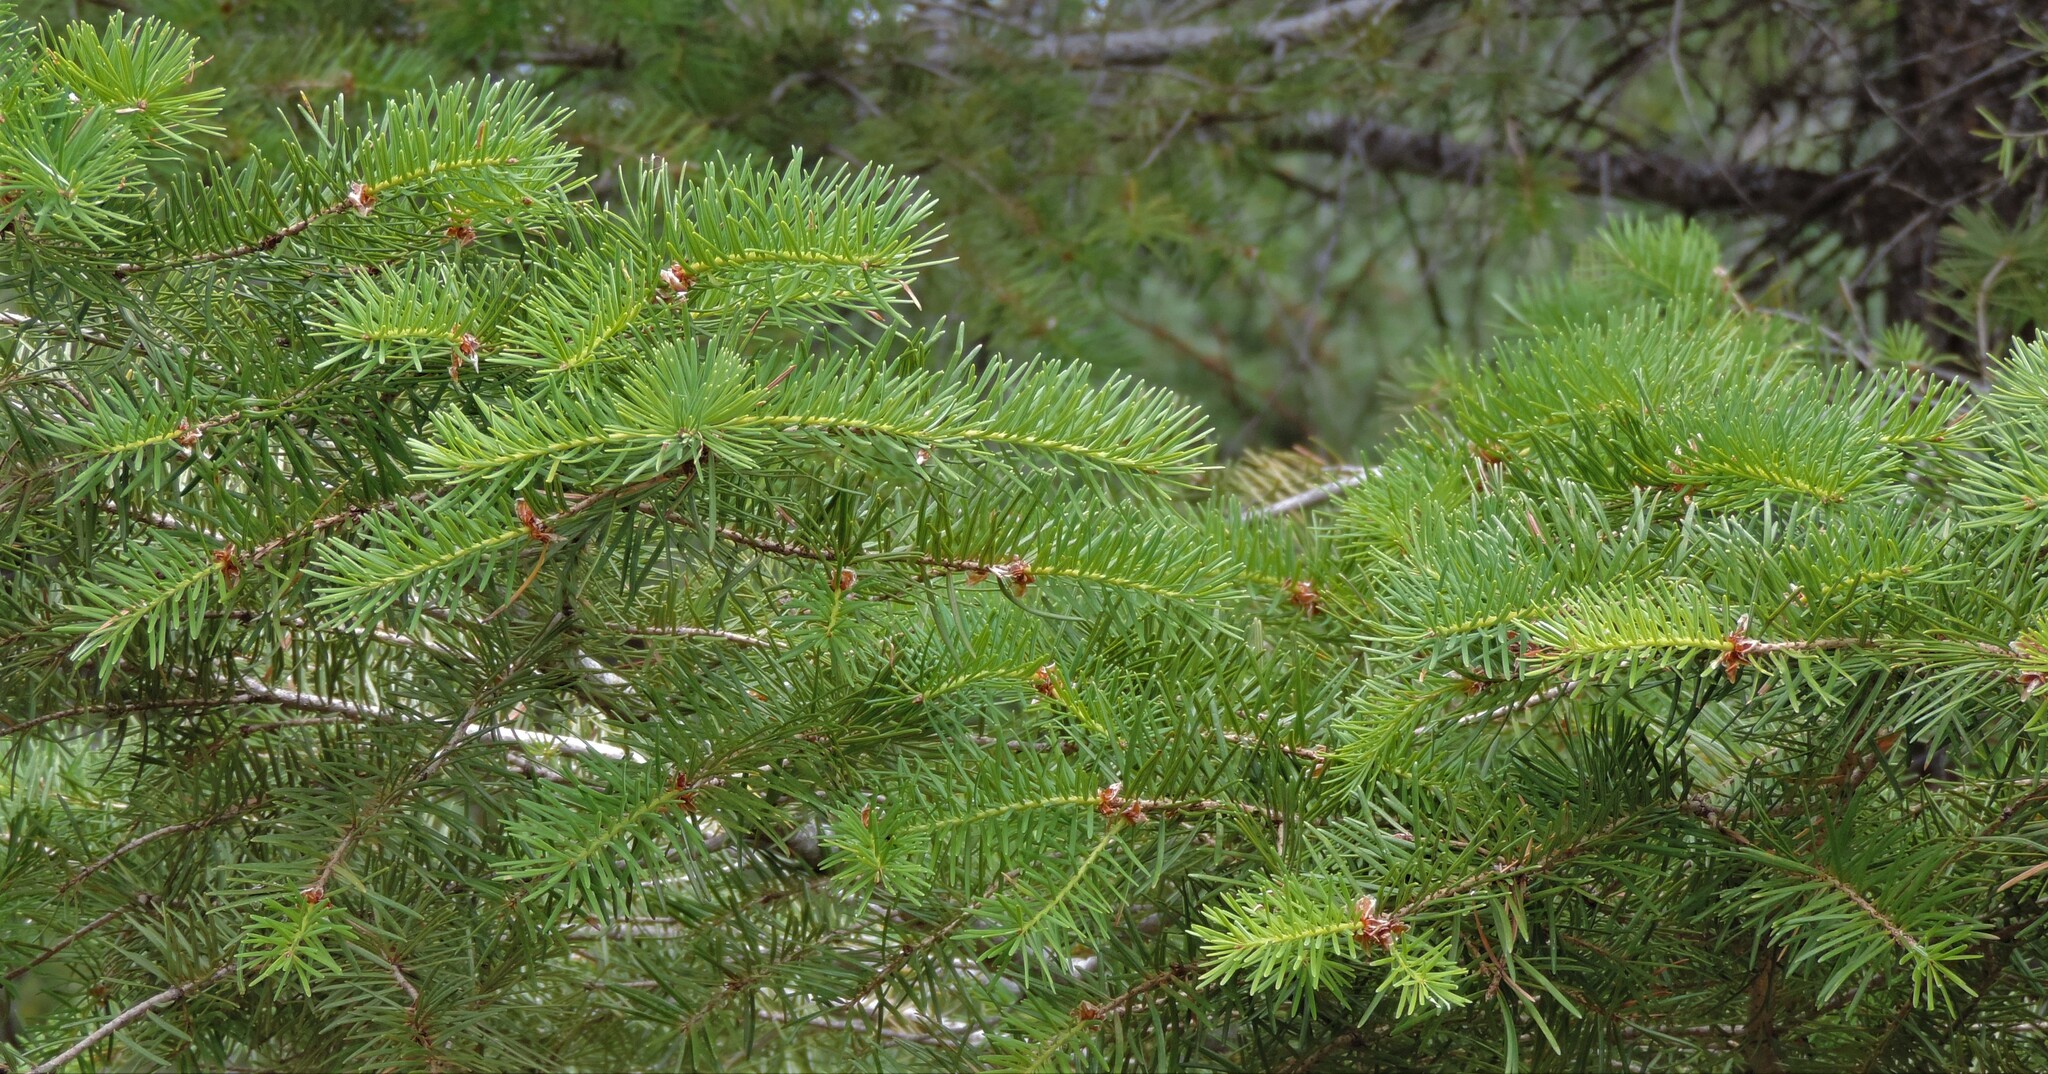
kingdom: Plantae
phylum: Tracheophyta
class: Pinopsida
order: Pinales
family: Pinaceae
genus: Pseudotsuga
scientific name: Pseudotsuga menziesii
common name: Douglas fir
